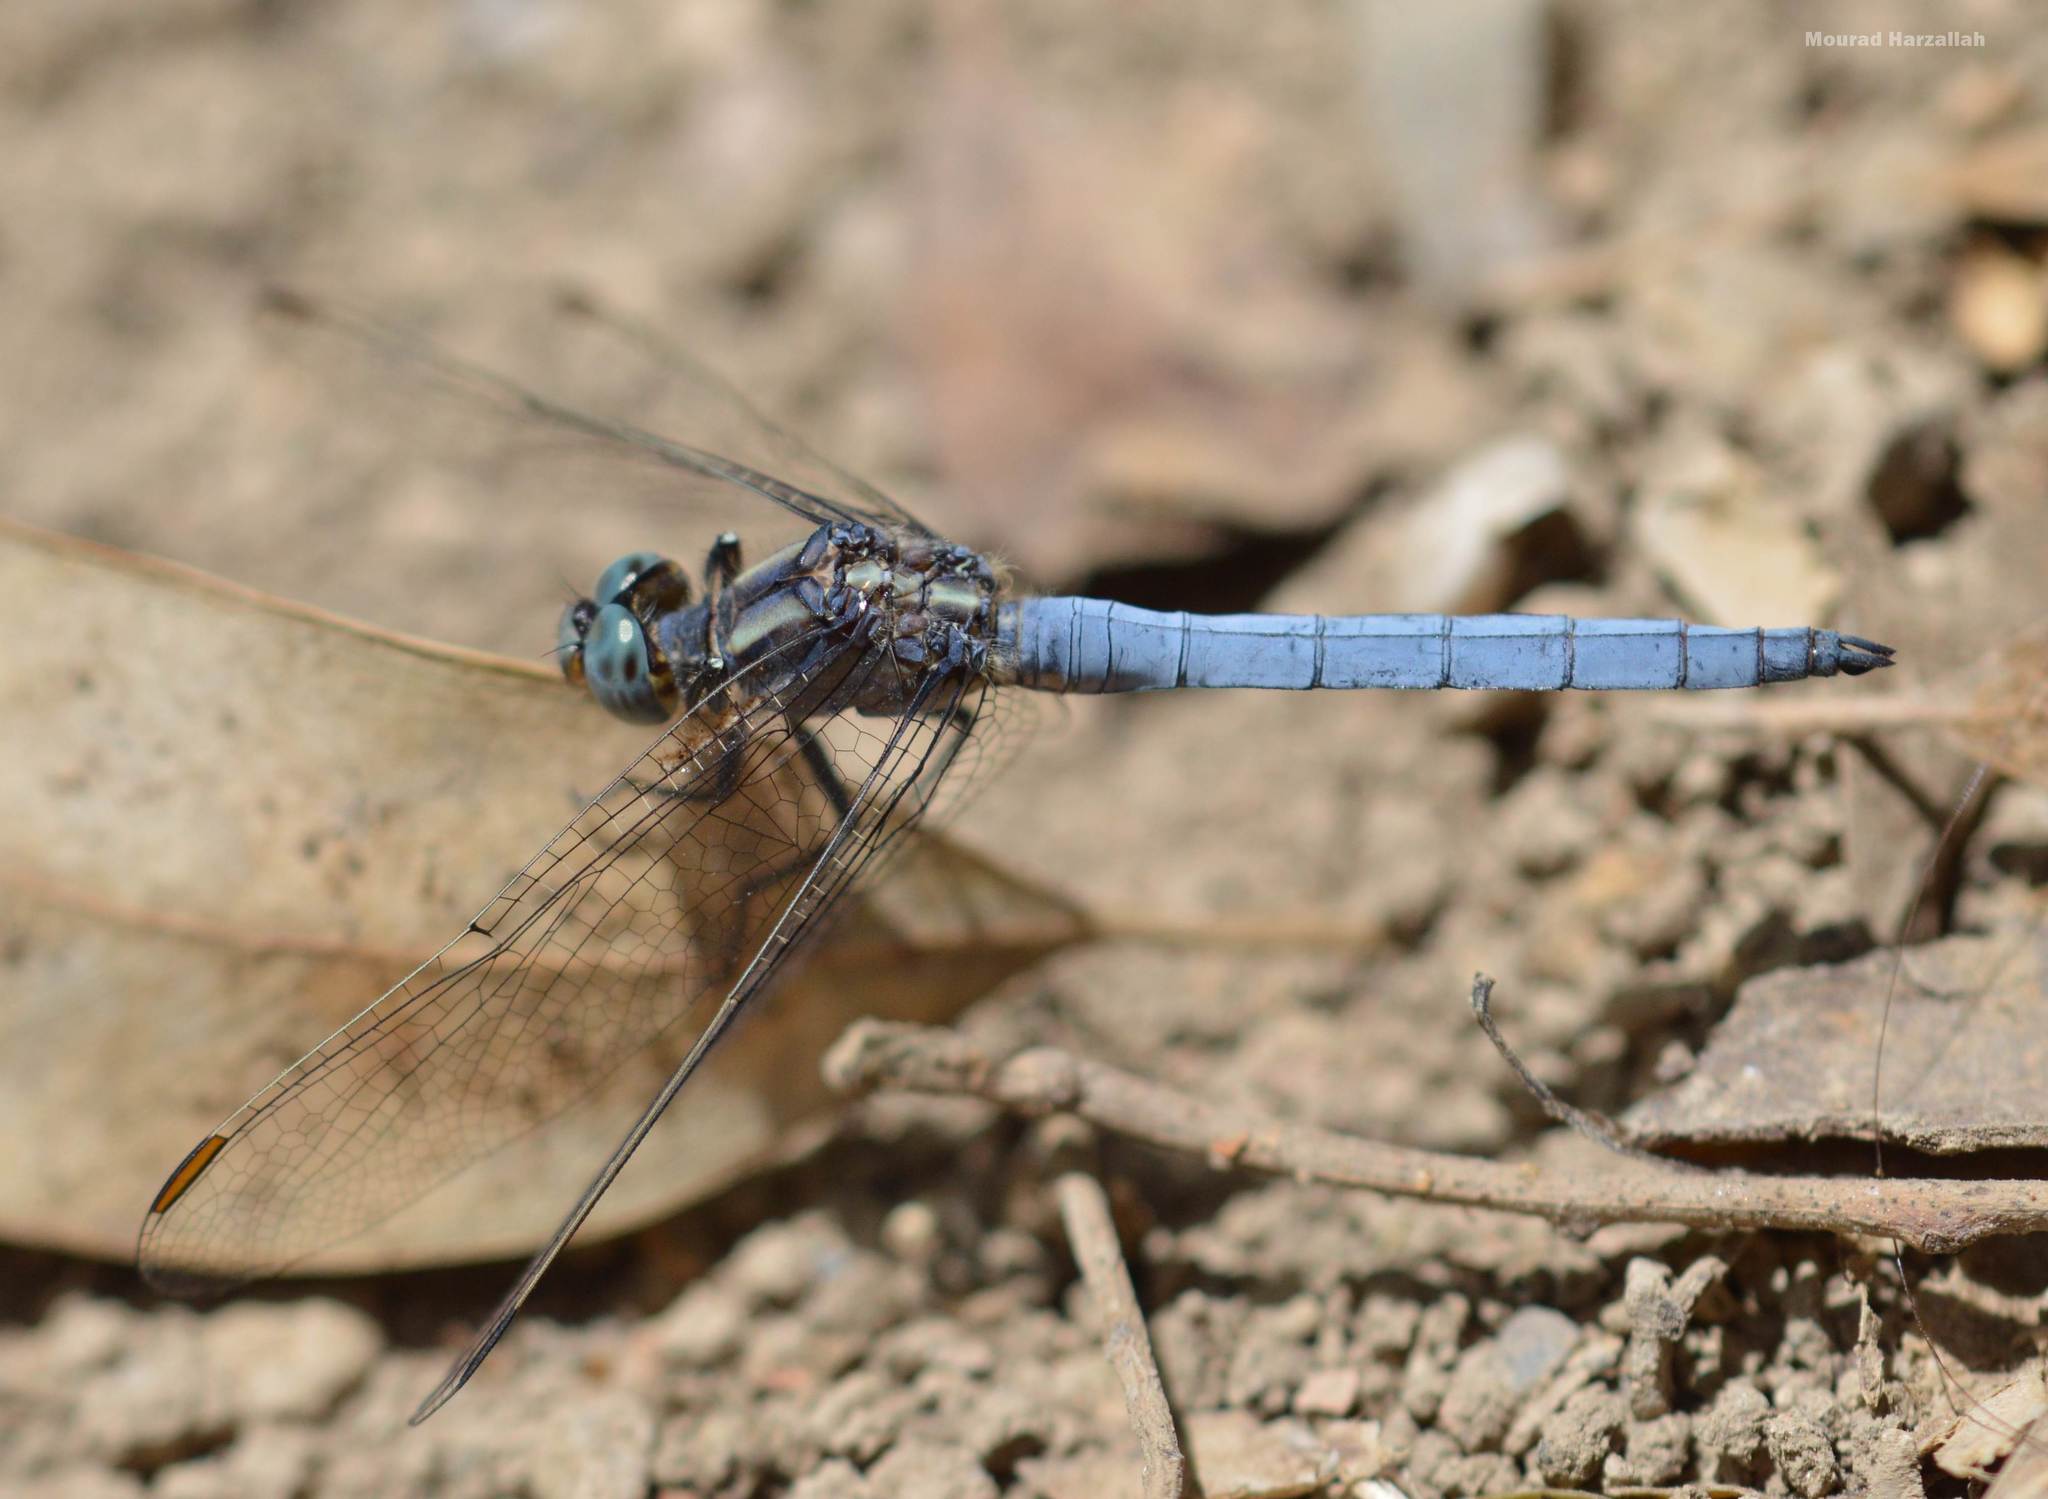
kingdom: Animalia
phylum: Arthropoda
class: Insecta
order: Odonata
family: Libellulidae
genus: Orthetrum
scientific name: Orthetrum coerulescens
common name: Keeled skimmer
